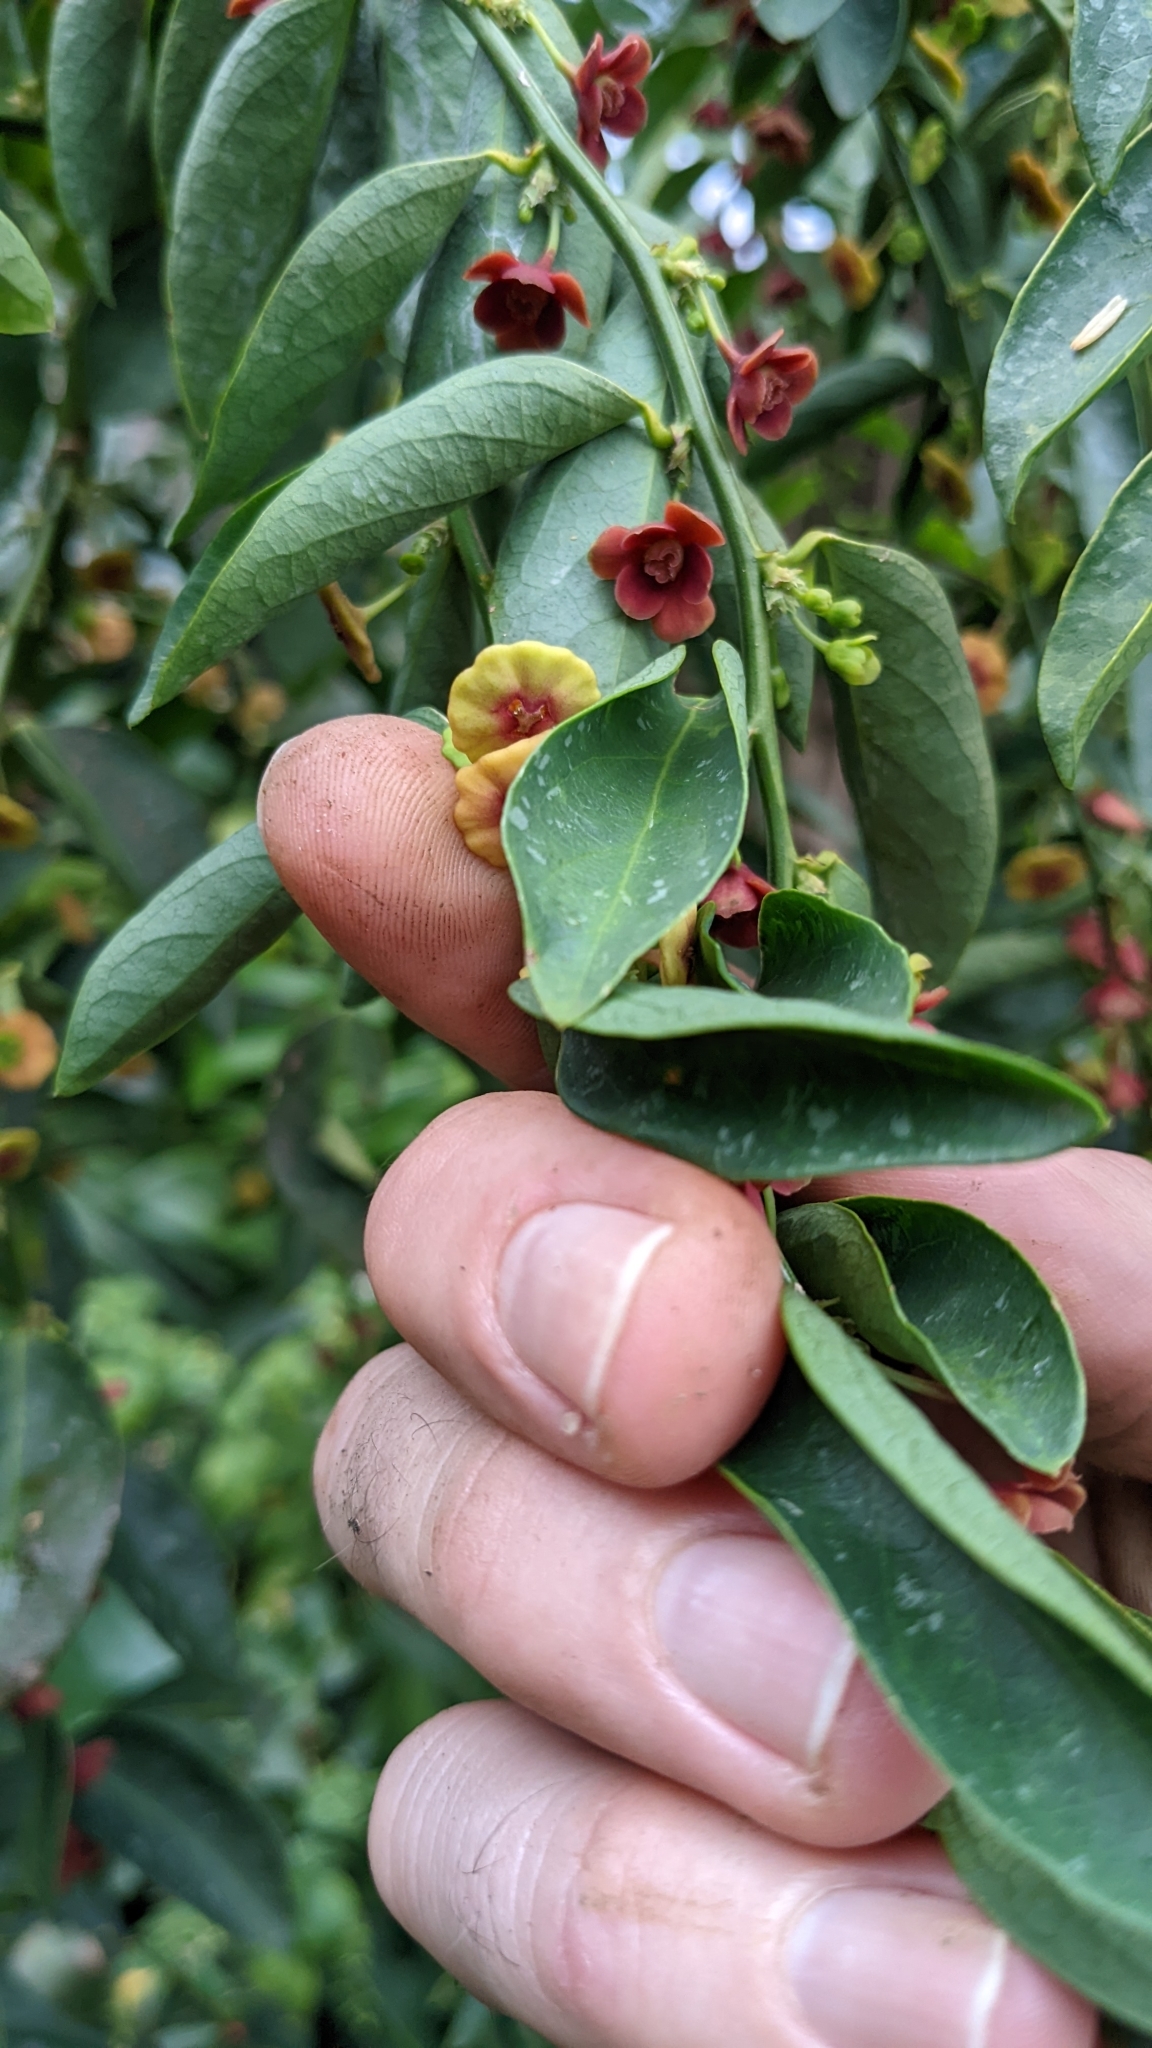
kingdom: Plantae
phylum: Tracheophyta
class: Magnoliopsida
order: Malpighiales
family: Phyllanthaceae
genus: Breynia
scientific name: Breynia androgyna
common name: Star gooseberry
